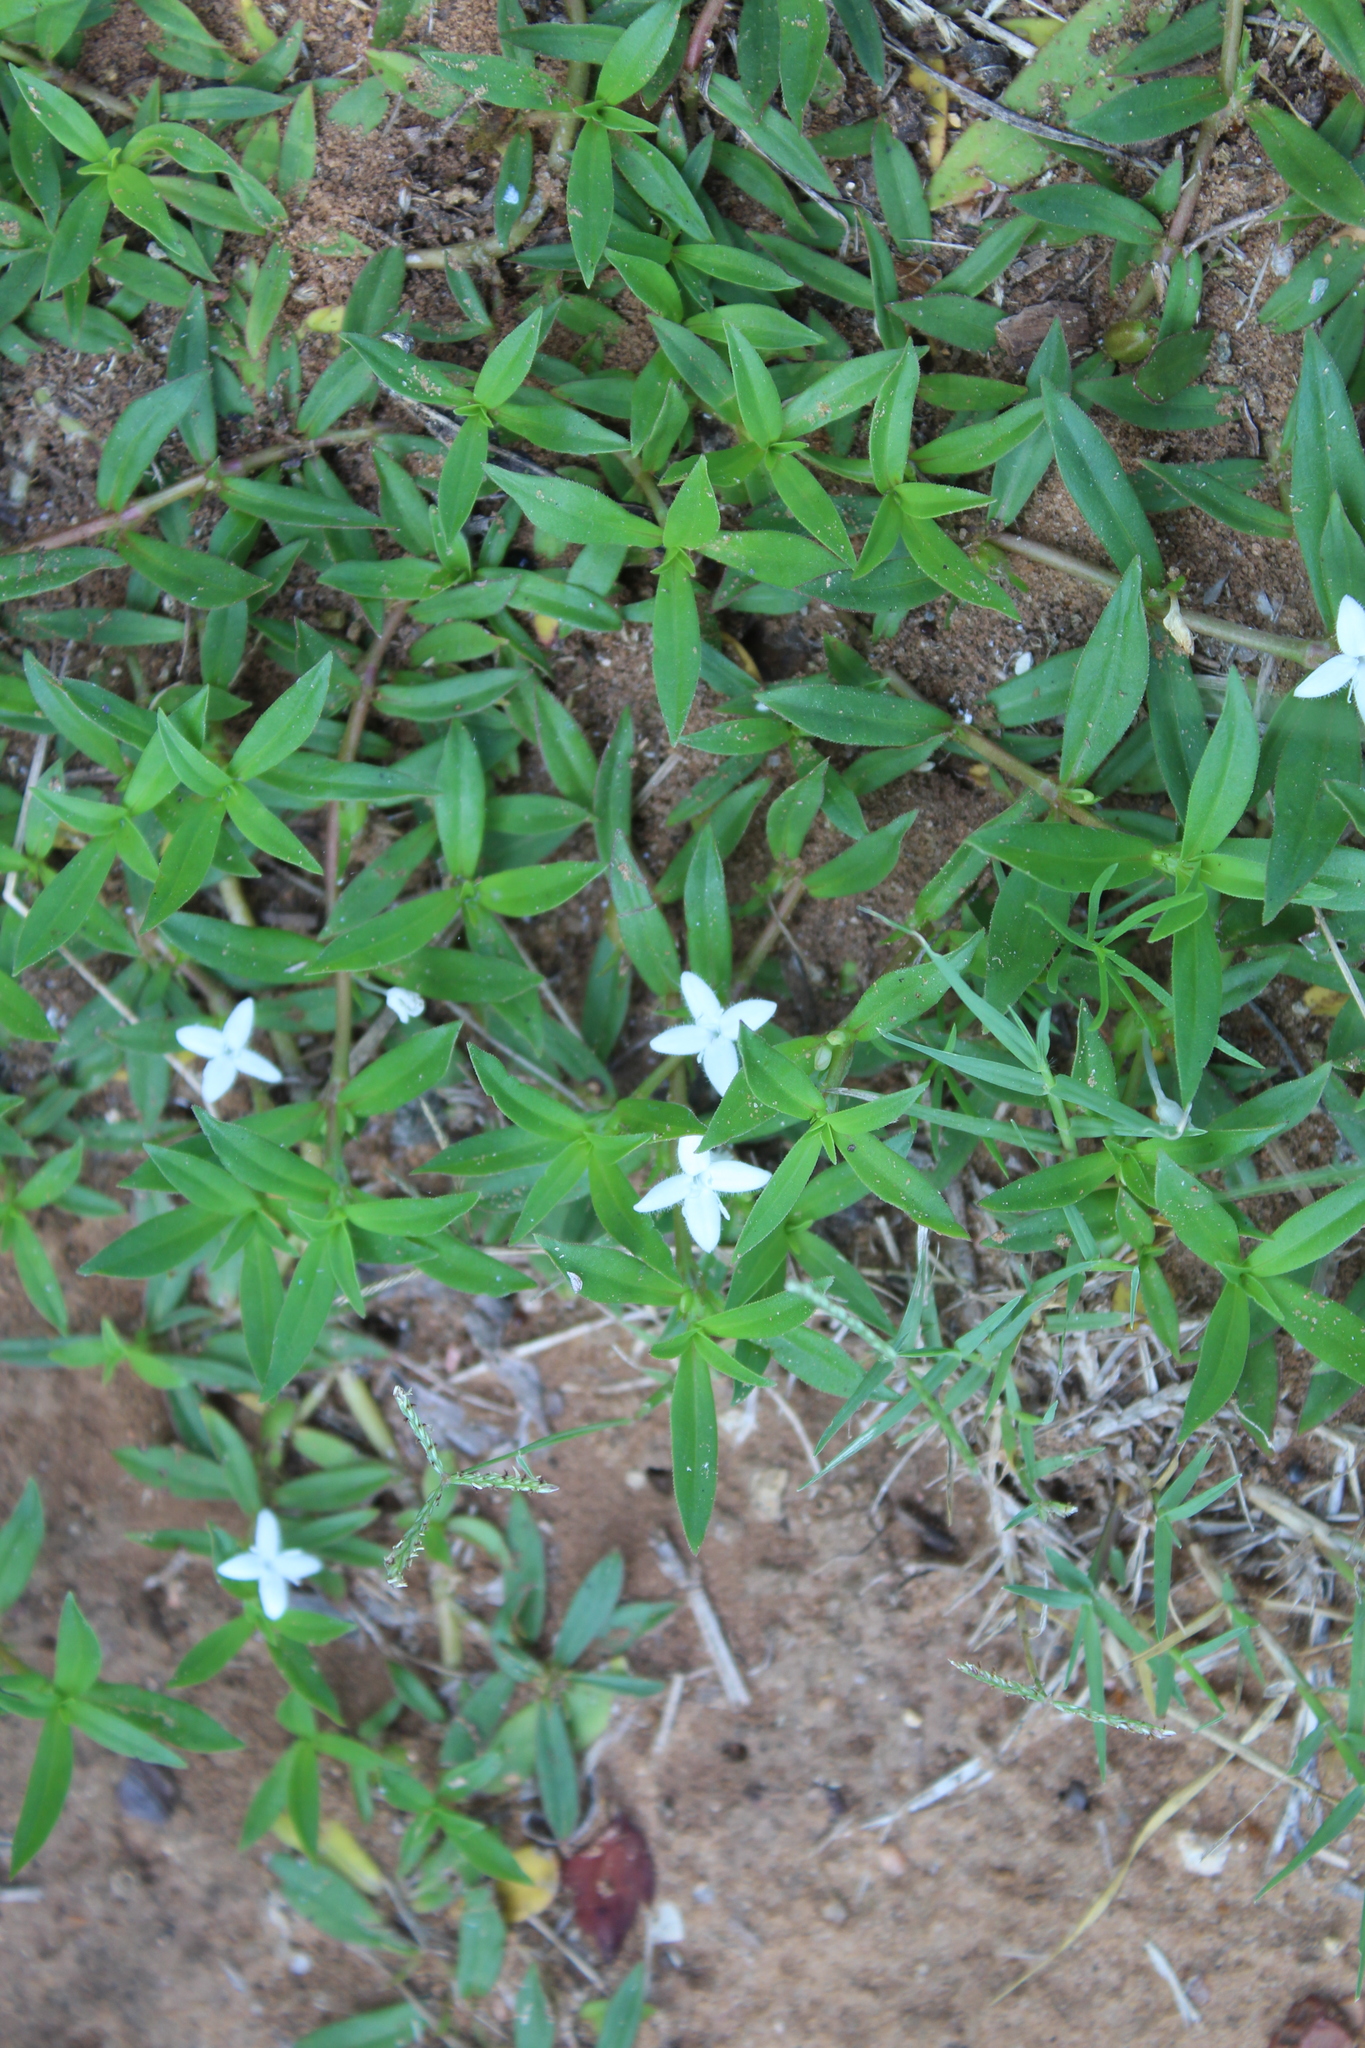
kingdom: Plantae
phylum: Tracheophyta
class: Magnoliopsida
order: Gentianales
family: Rubiaceae
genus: Diodia
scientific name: Diodia virginiana
